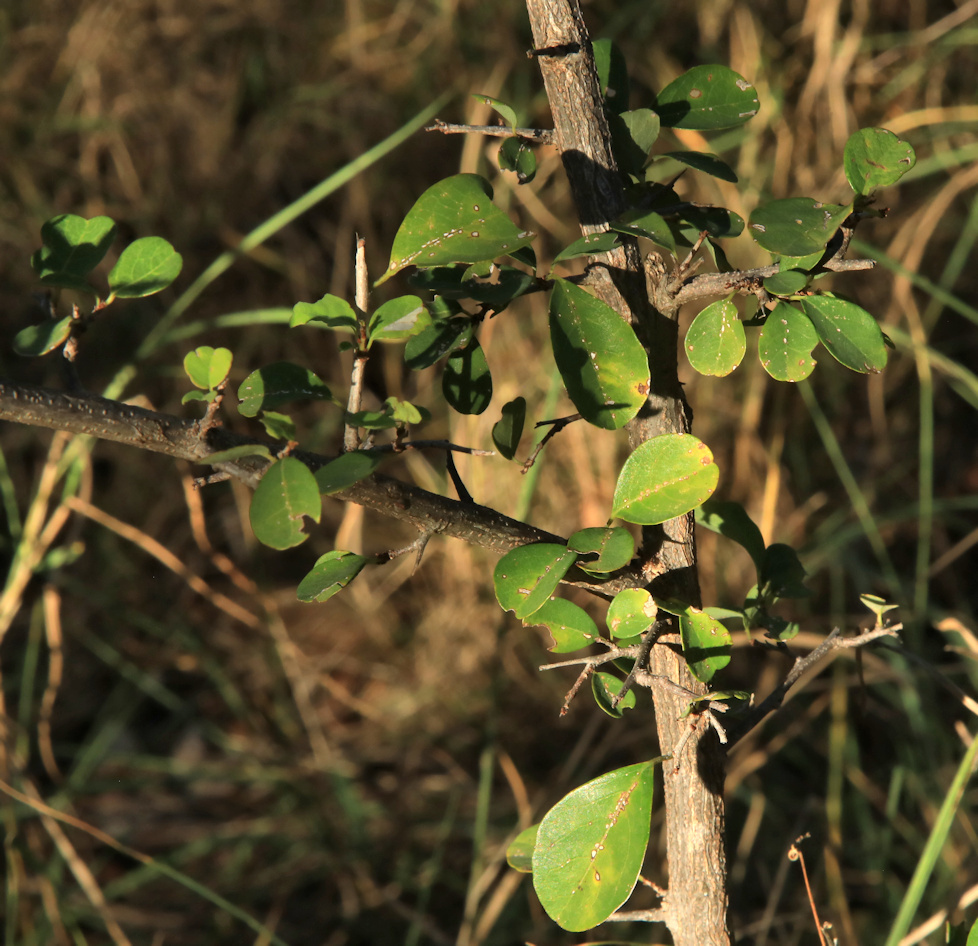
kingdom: Plantae
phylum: Tracheophyta
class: Magnoliopsida
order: Malpighiales
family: Phyllanthaceae
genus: Flueggea
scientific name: Flueggea virosa
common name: Common bushweed
